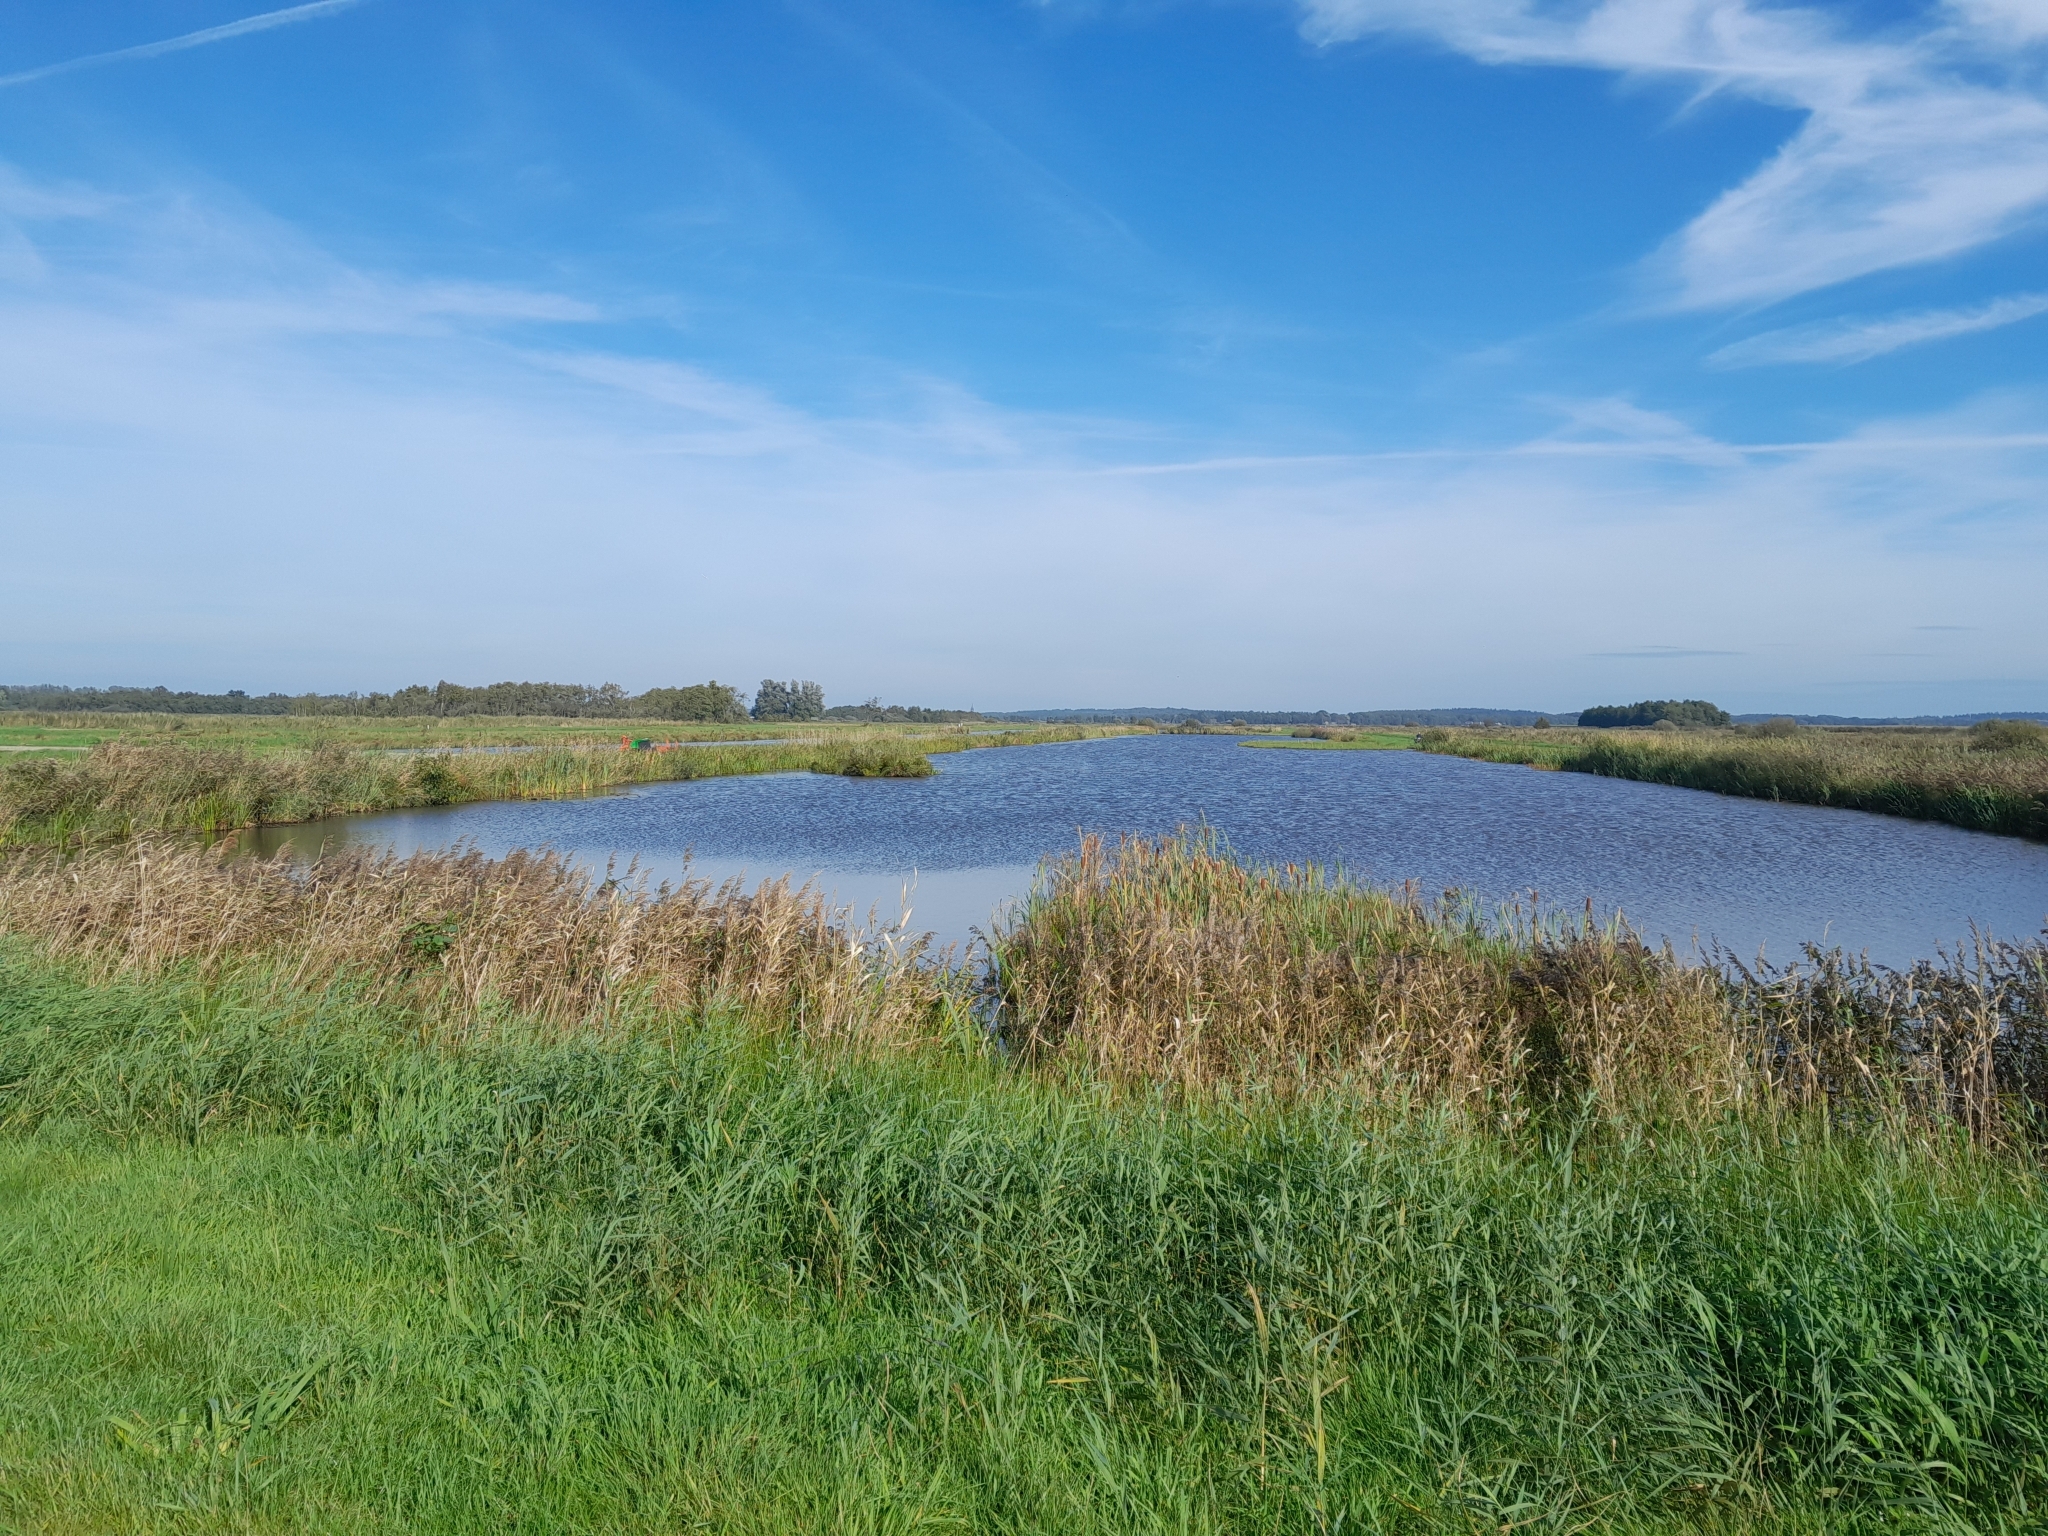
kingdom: Plantae
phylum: Tracheophyta
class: Liliopsida
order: Poales
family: Poaceae
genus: Phragmites
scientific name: Phragmites australis
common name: Common reed
